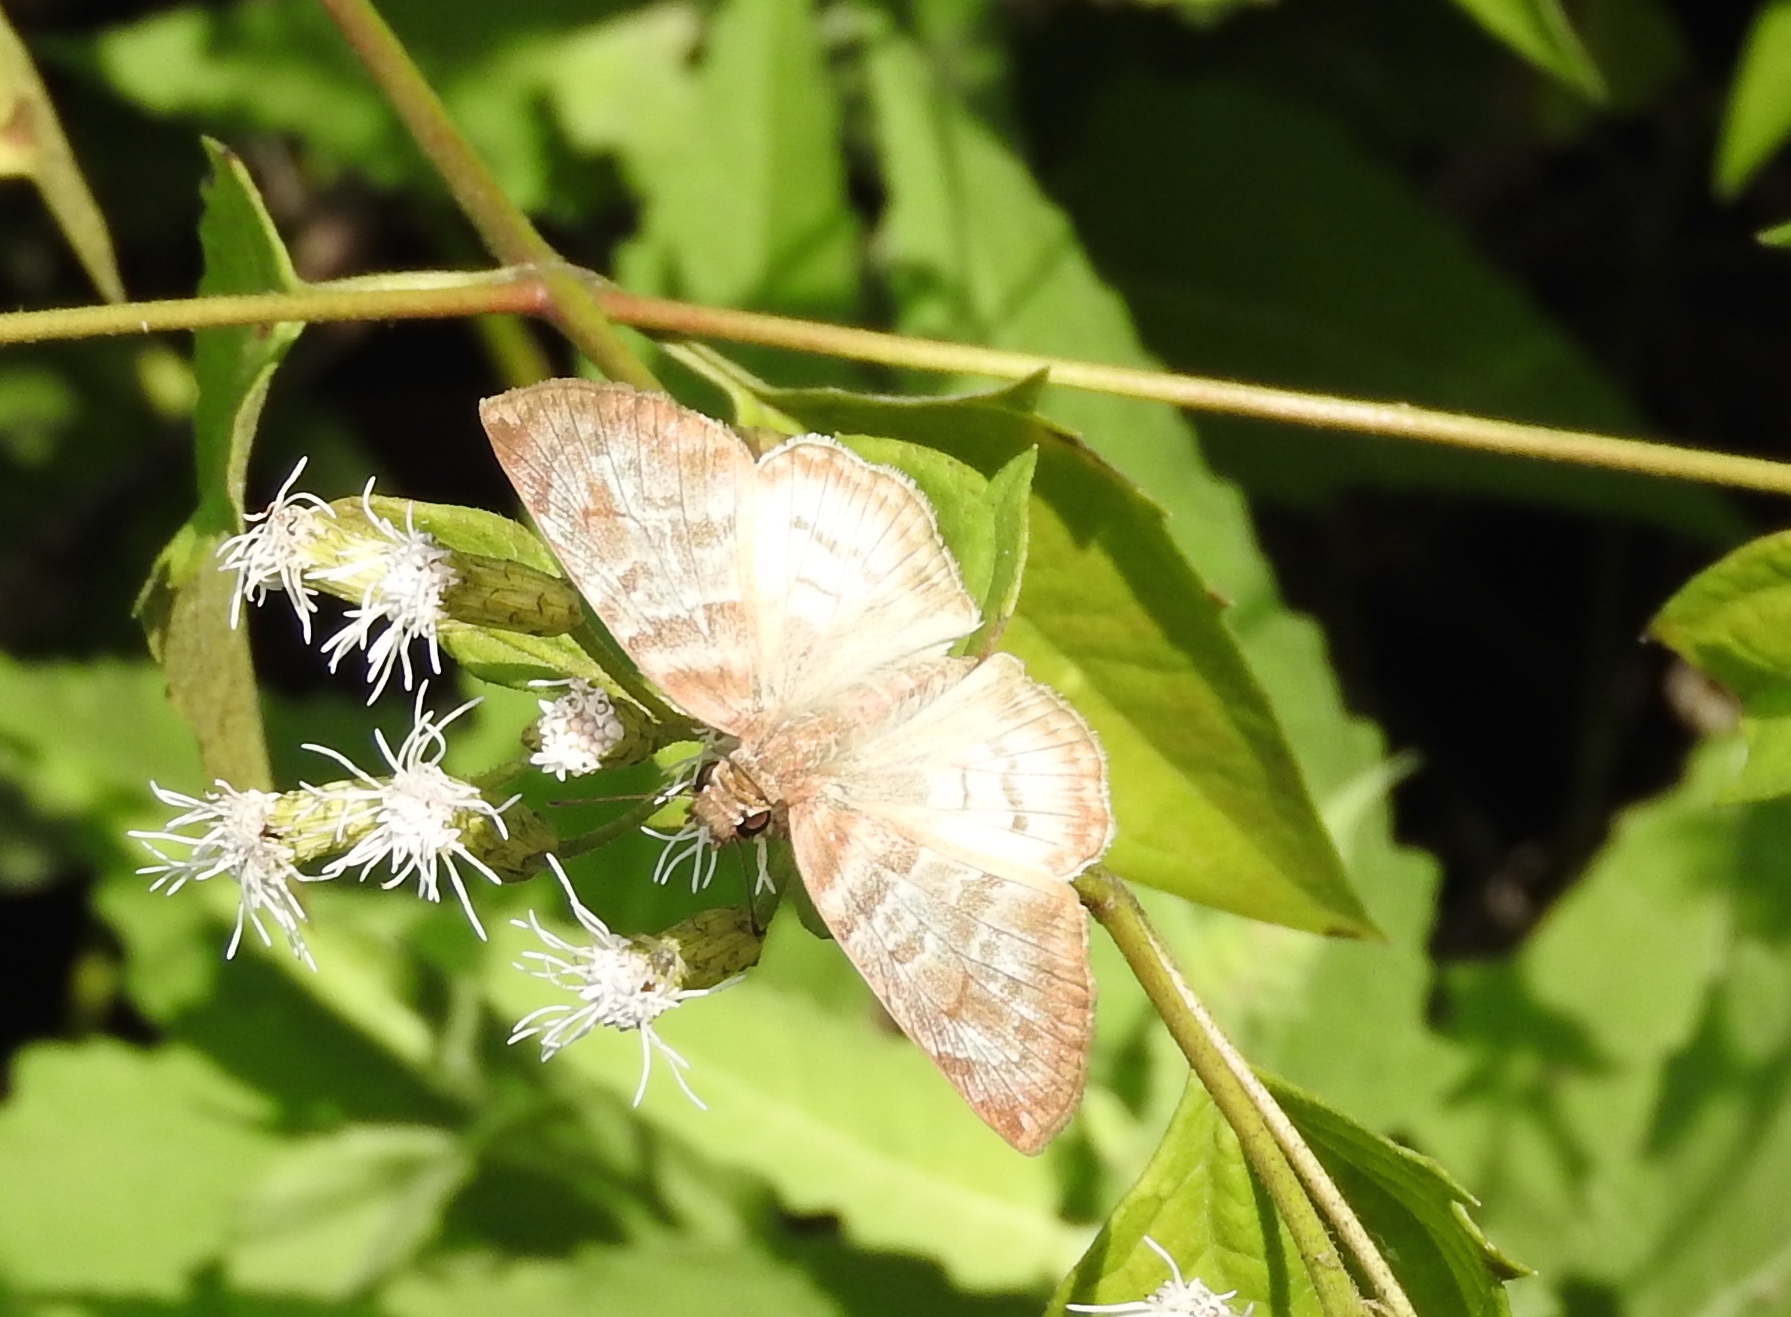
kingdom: Animalia
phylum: Arthropoda
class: Insecta
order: Lepidoptera
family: Hesperiidae
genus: Mylon
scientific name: Mylon pelopidas
